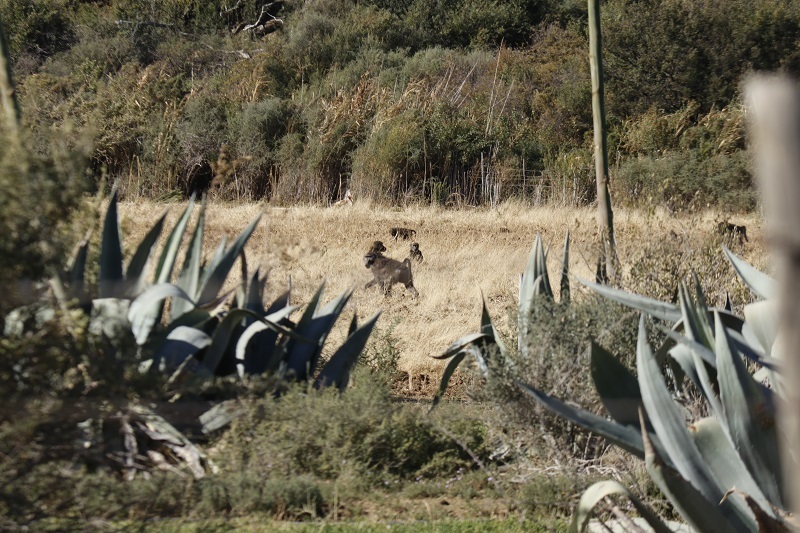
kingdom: Animalia
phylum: Chordata
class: Mammalia
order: Primates
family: Cercopithecidae
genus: Papio
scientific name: Papio ursinus
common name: Chacma baboon
